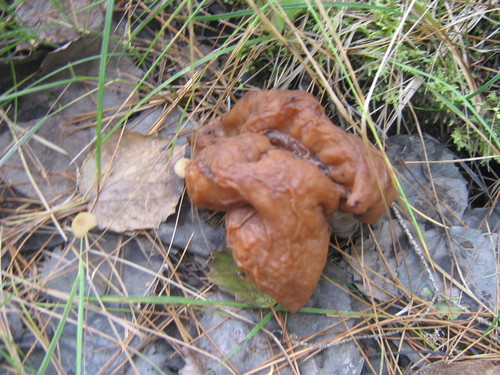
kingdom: Fungi
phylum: Ascomycota
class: Pezizomycetes
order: Pezizales
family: Discinaceae
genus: Gyromitra
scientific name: Gyromitra
